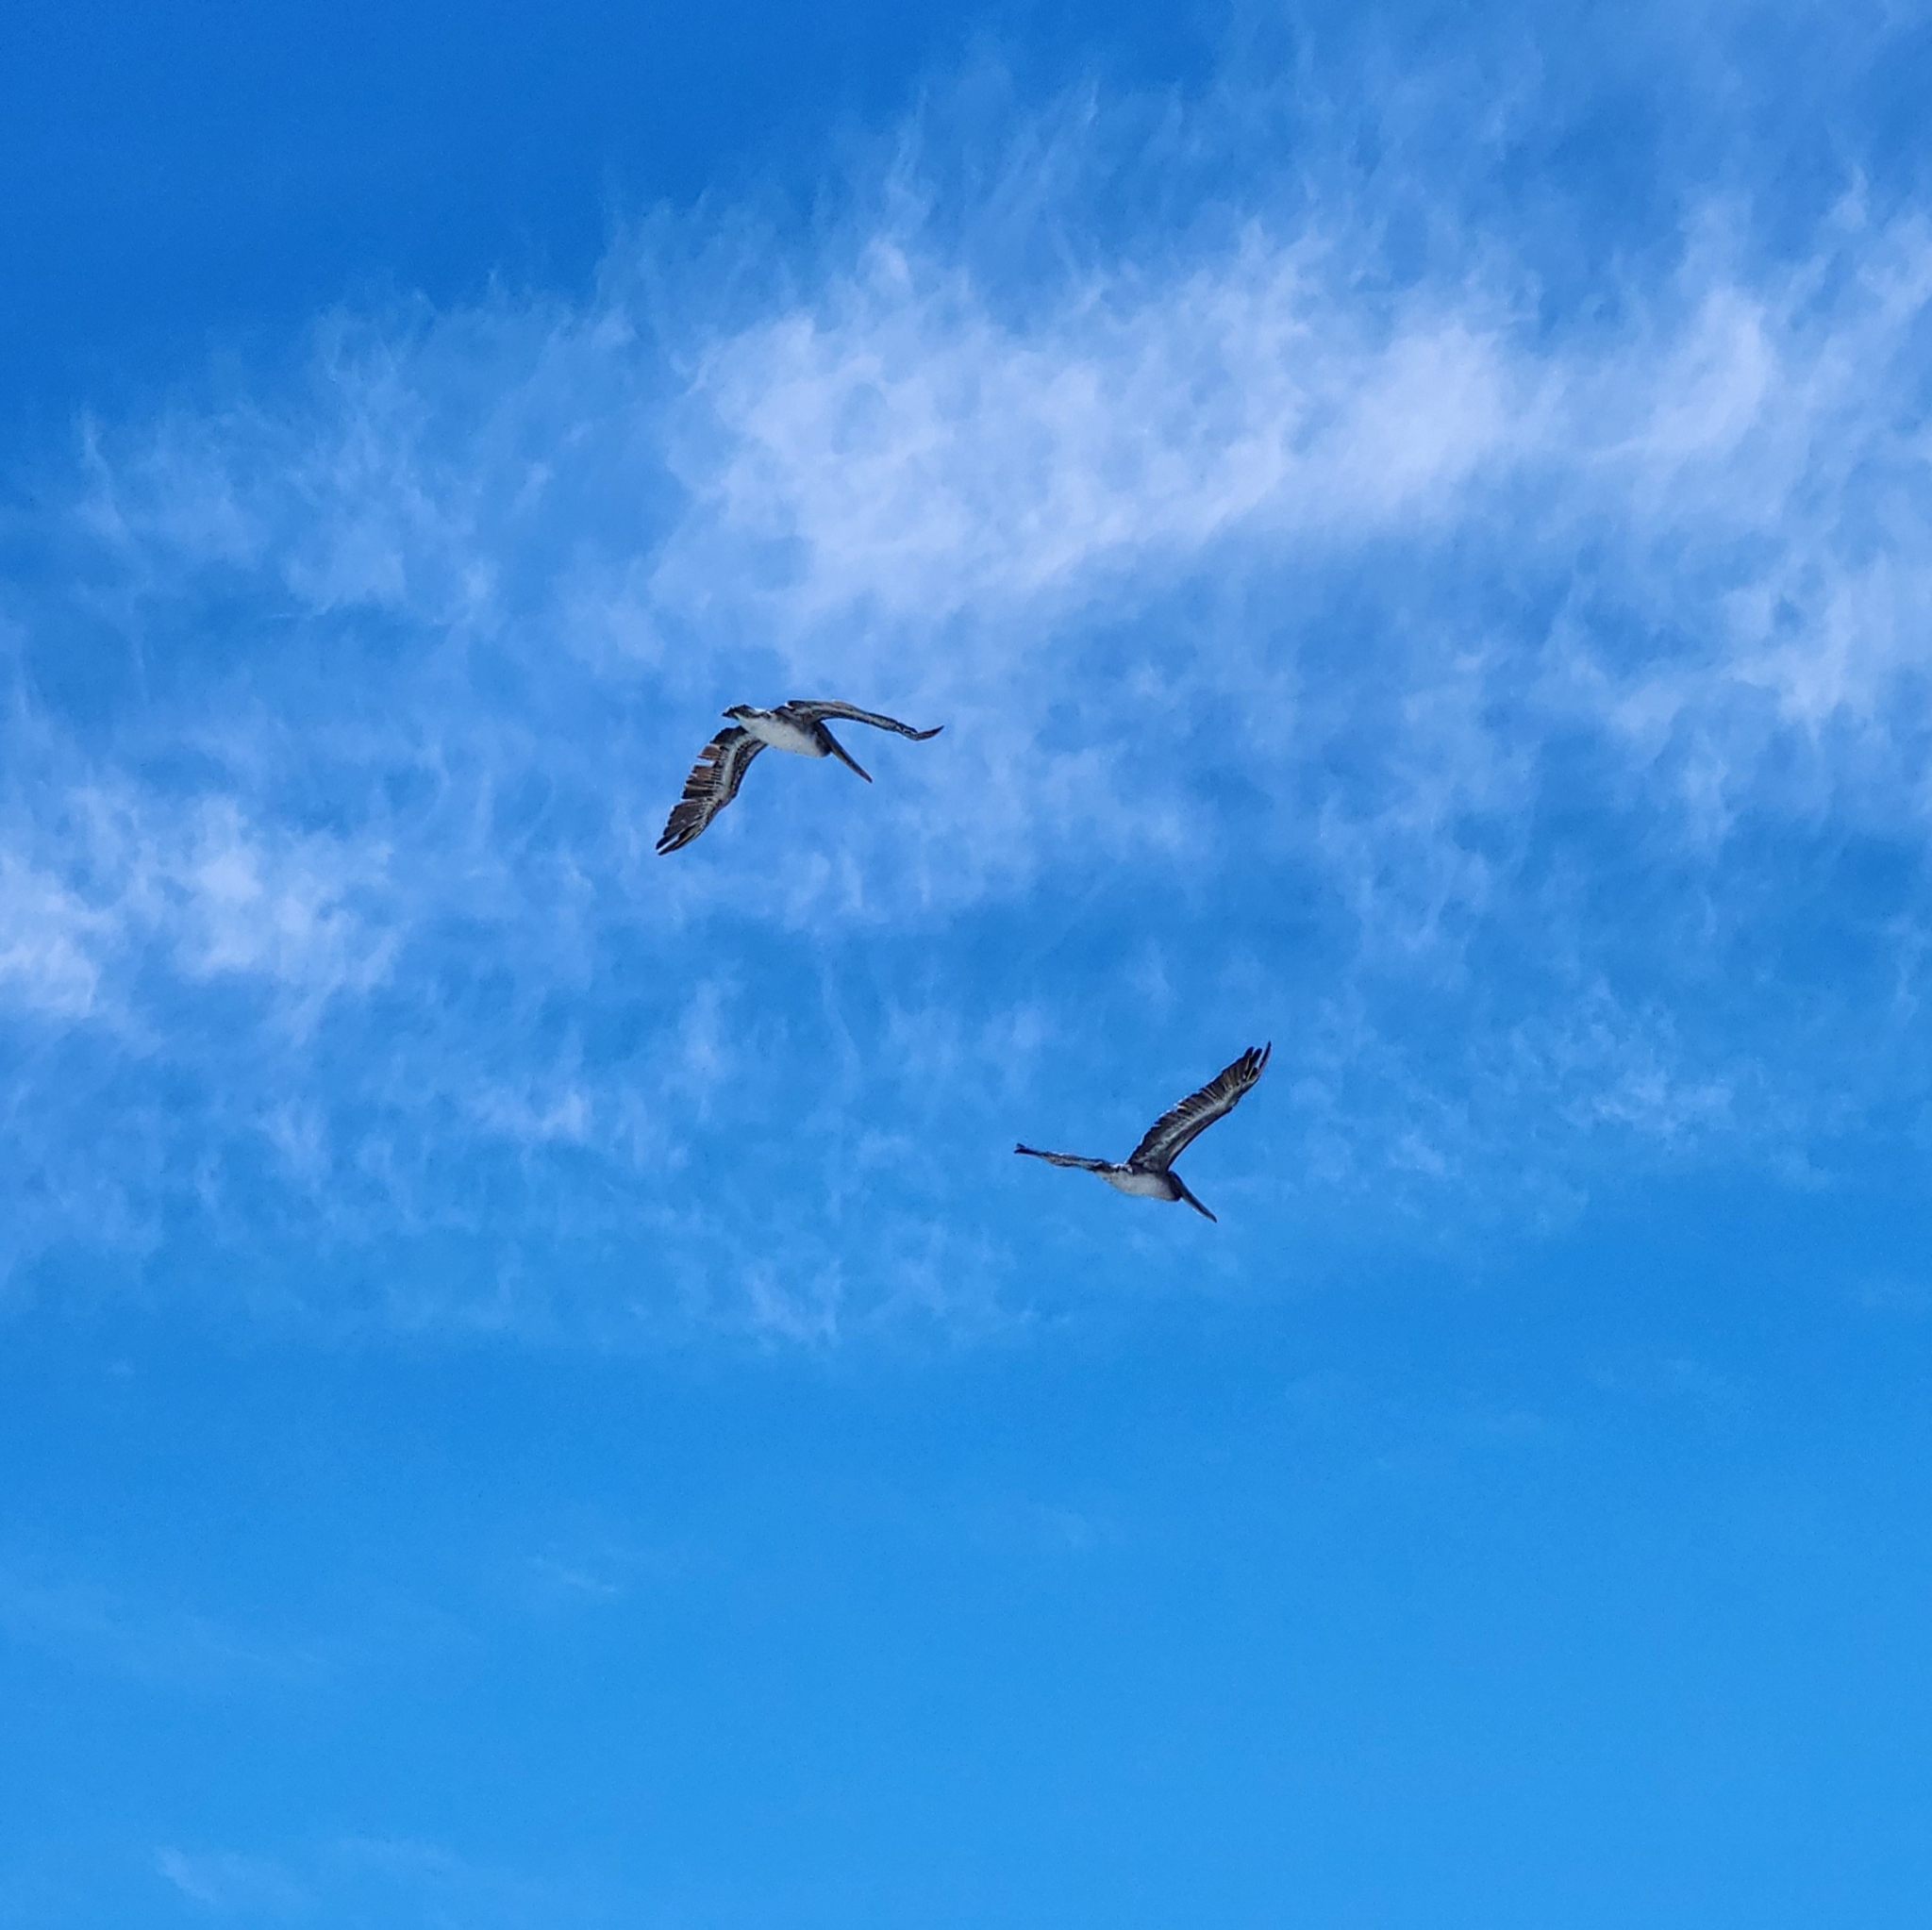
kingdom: Animalia
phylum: Chordata
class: Aves
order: Pelecaniformes
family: Pelecanidae
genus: Pelecanus
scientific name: Pelecanus occidentalis
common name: Brown pelican
